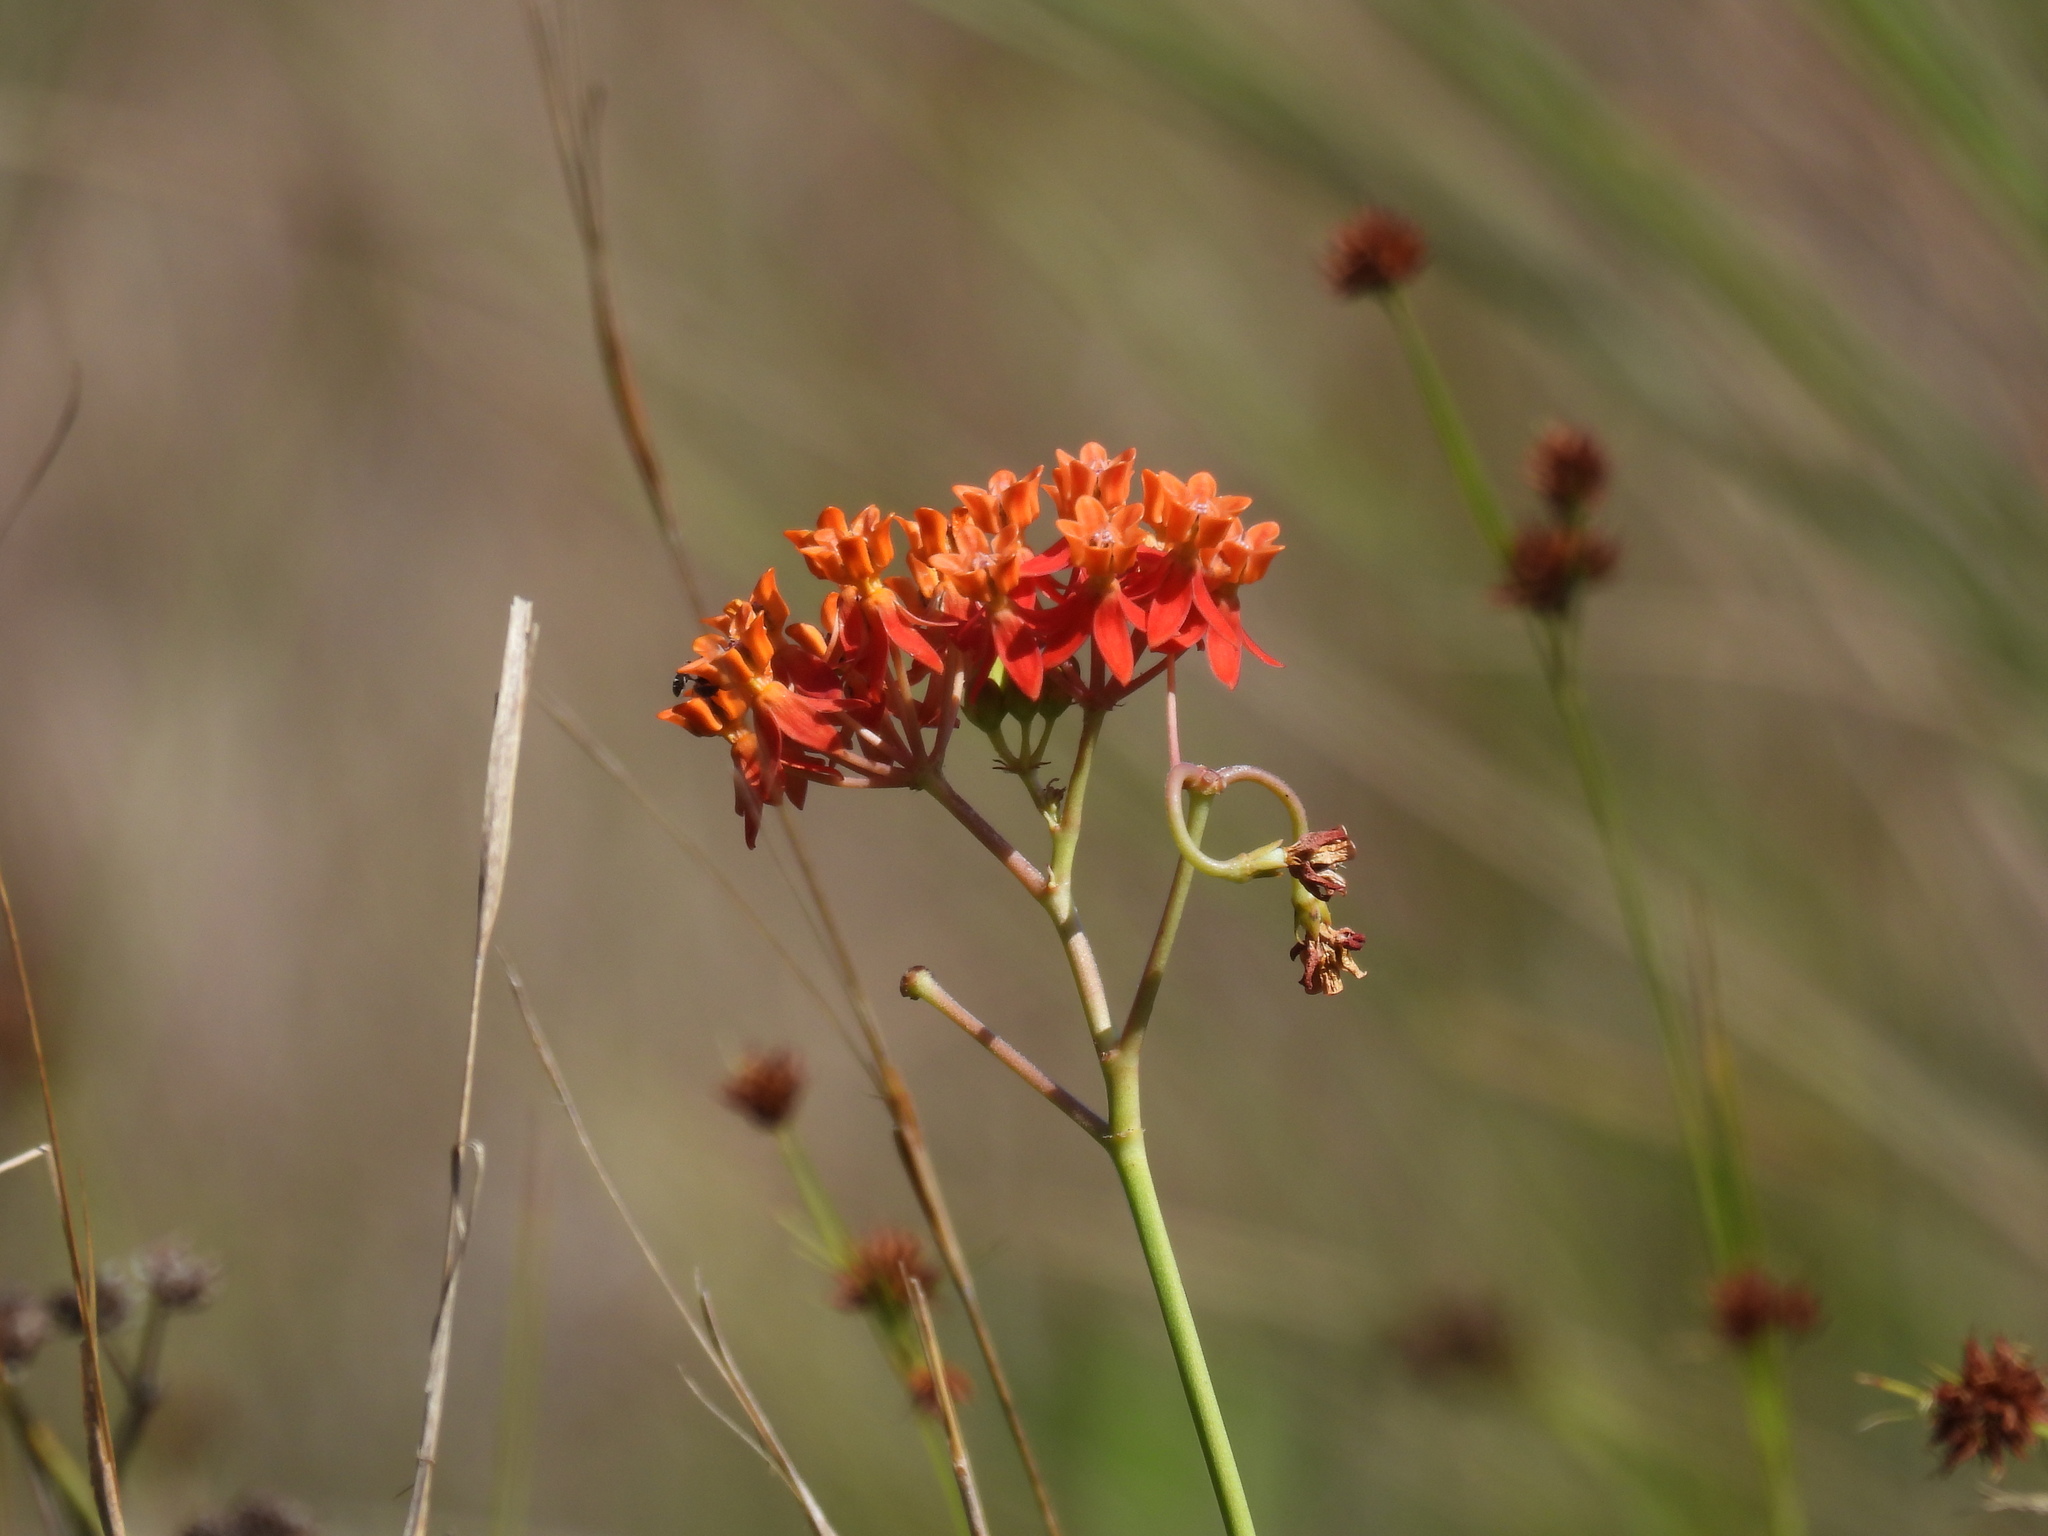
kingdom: Plantae
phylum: Tracheophyta
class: Magnoliopsida
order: Gentianales
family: Apocynaceae
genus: Asclepias
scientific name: Asclepias lanceolata
